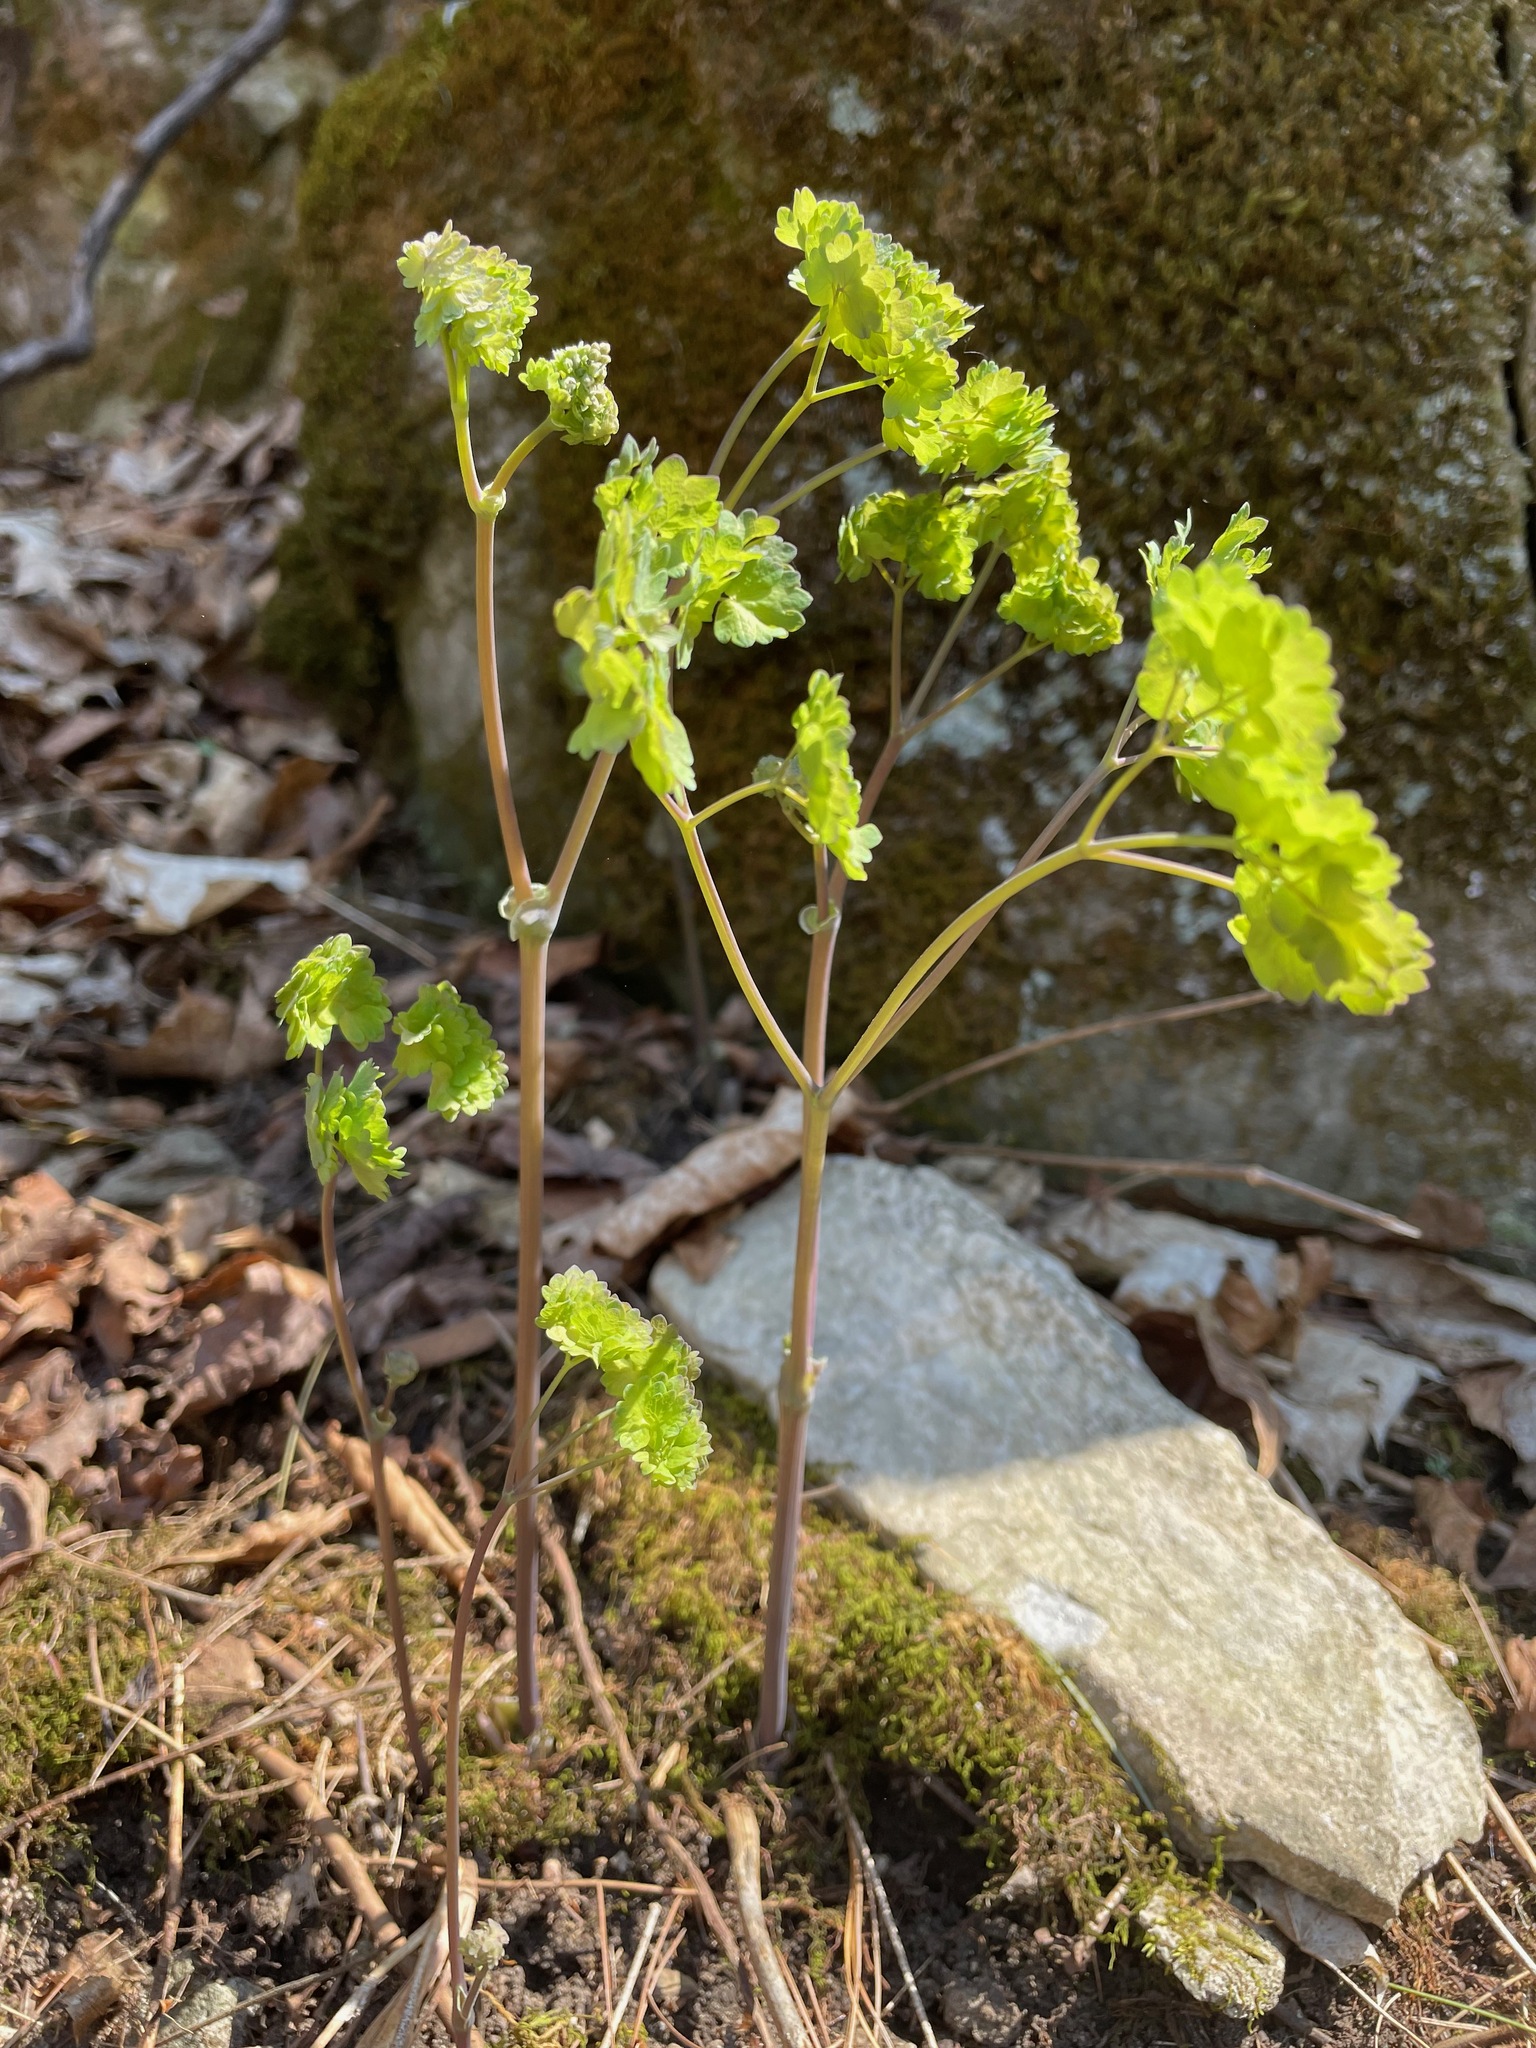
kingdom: Plantae
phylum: Tracheophyta
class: Magnoliopsida
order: Ranunculales
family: Ranunculaceae
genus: Thalictrum
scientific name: Thalictrum dioicum
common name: Early meadow-rue
